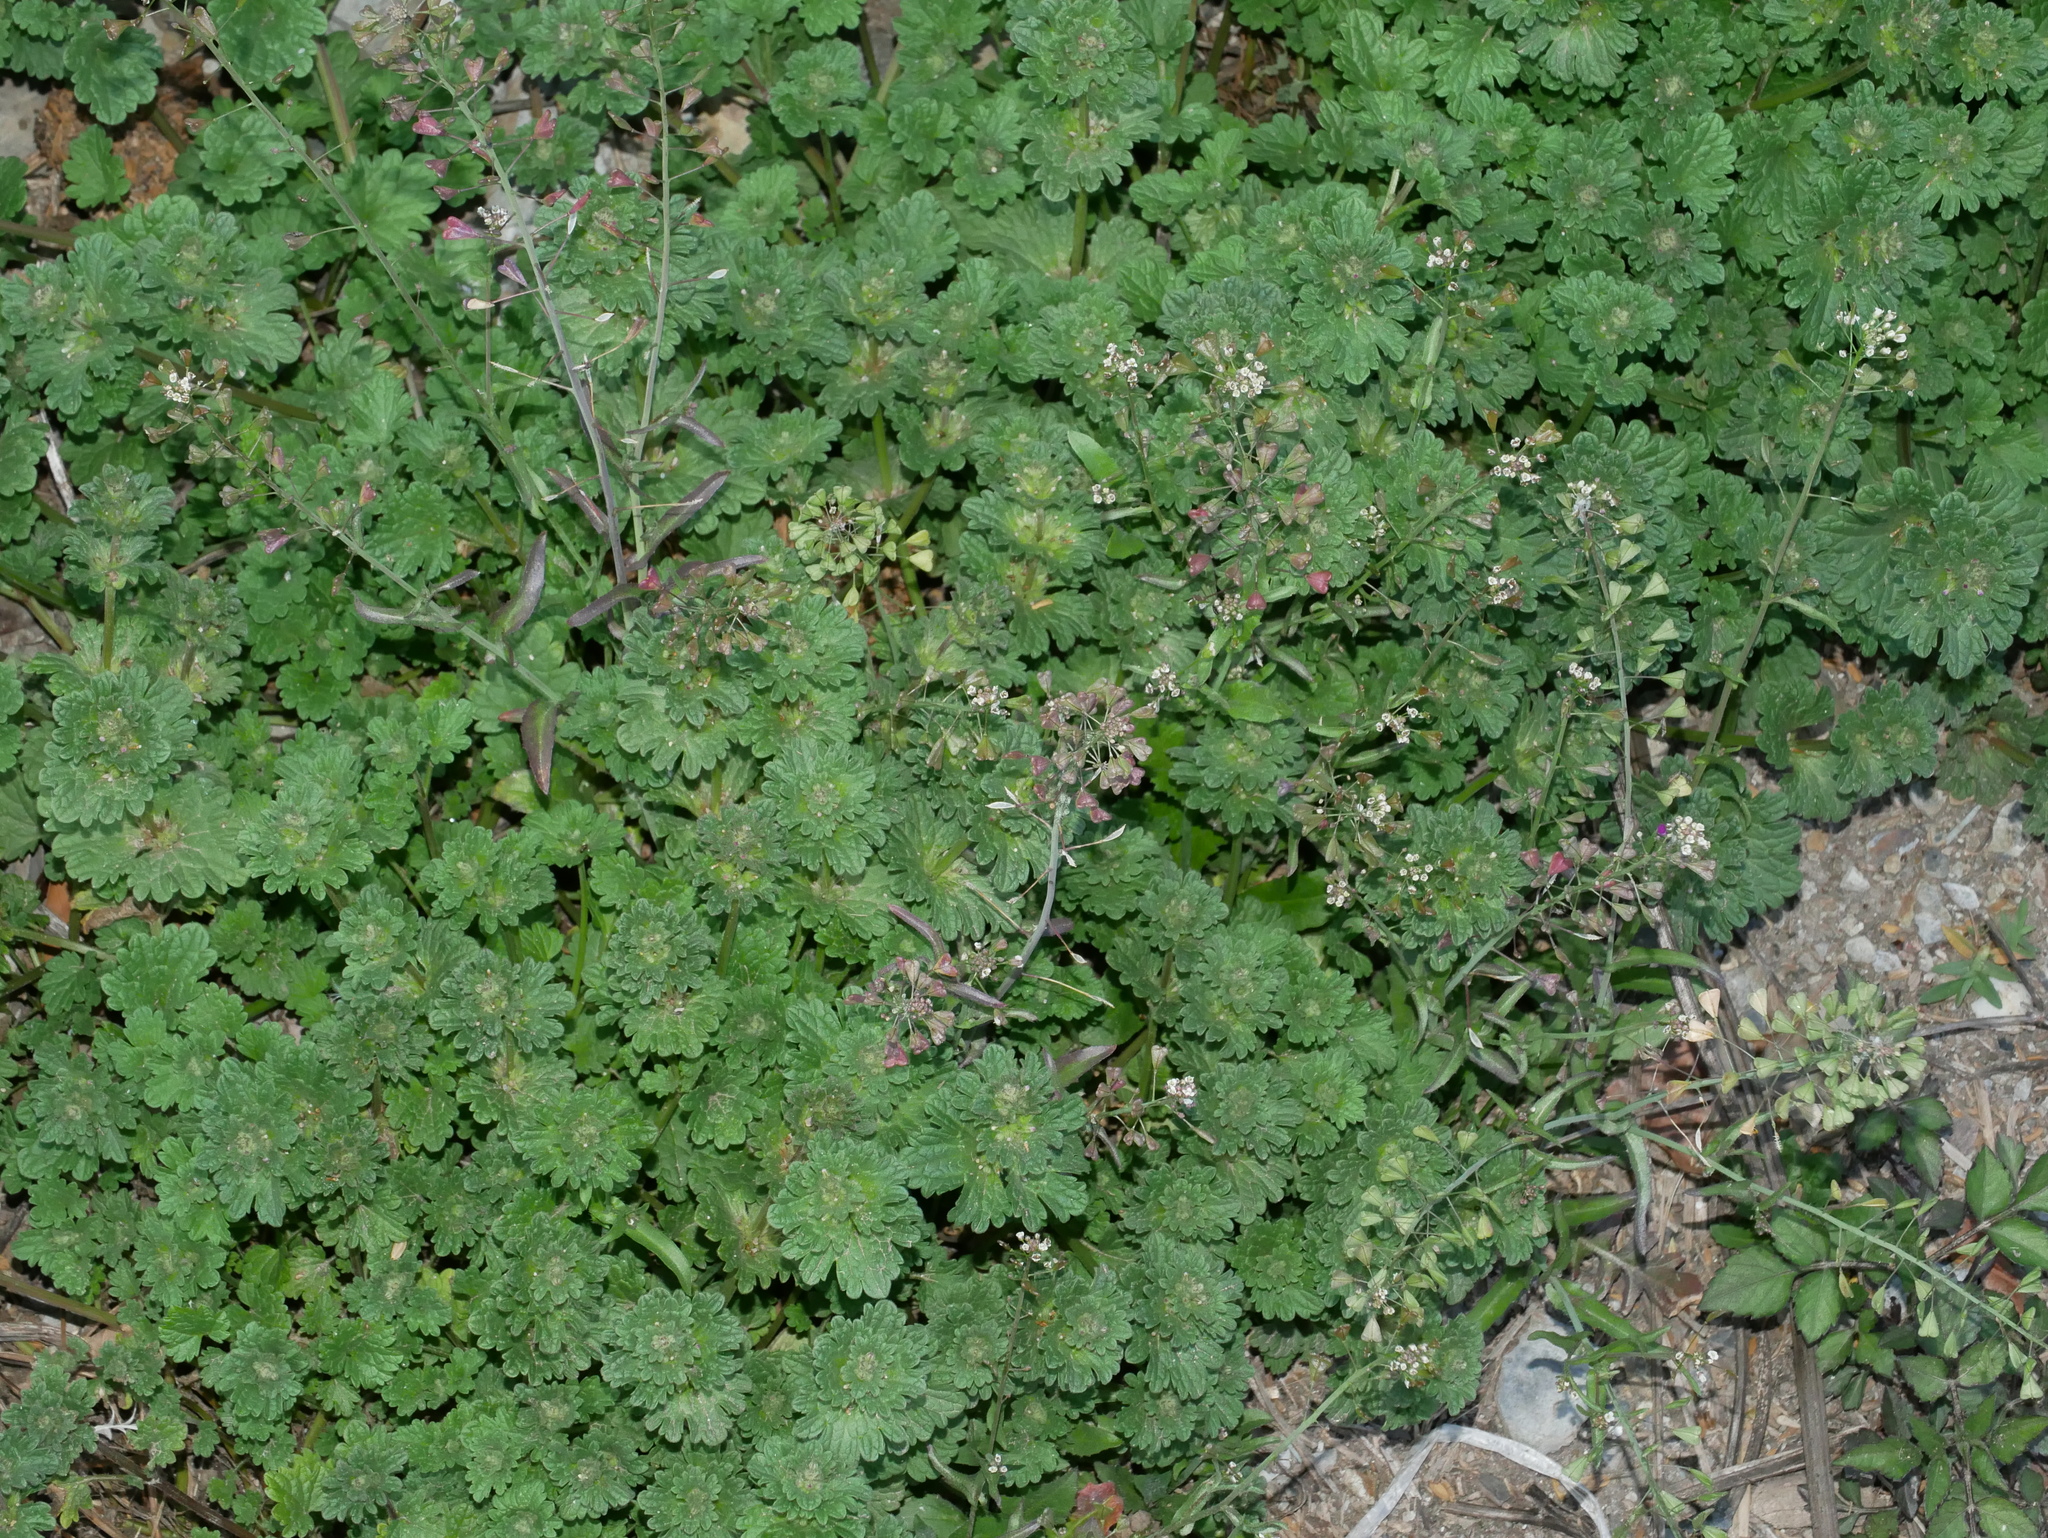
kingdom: Plantae
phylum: Tracheophyta
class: Magnoliopsida
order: Lamiales
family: Lamiaceae
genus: Lamium
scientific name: Lamium amplexicaule
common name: Henbit dead-nettle
